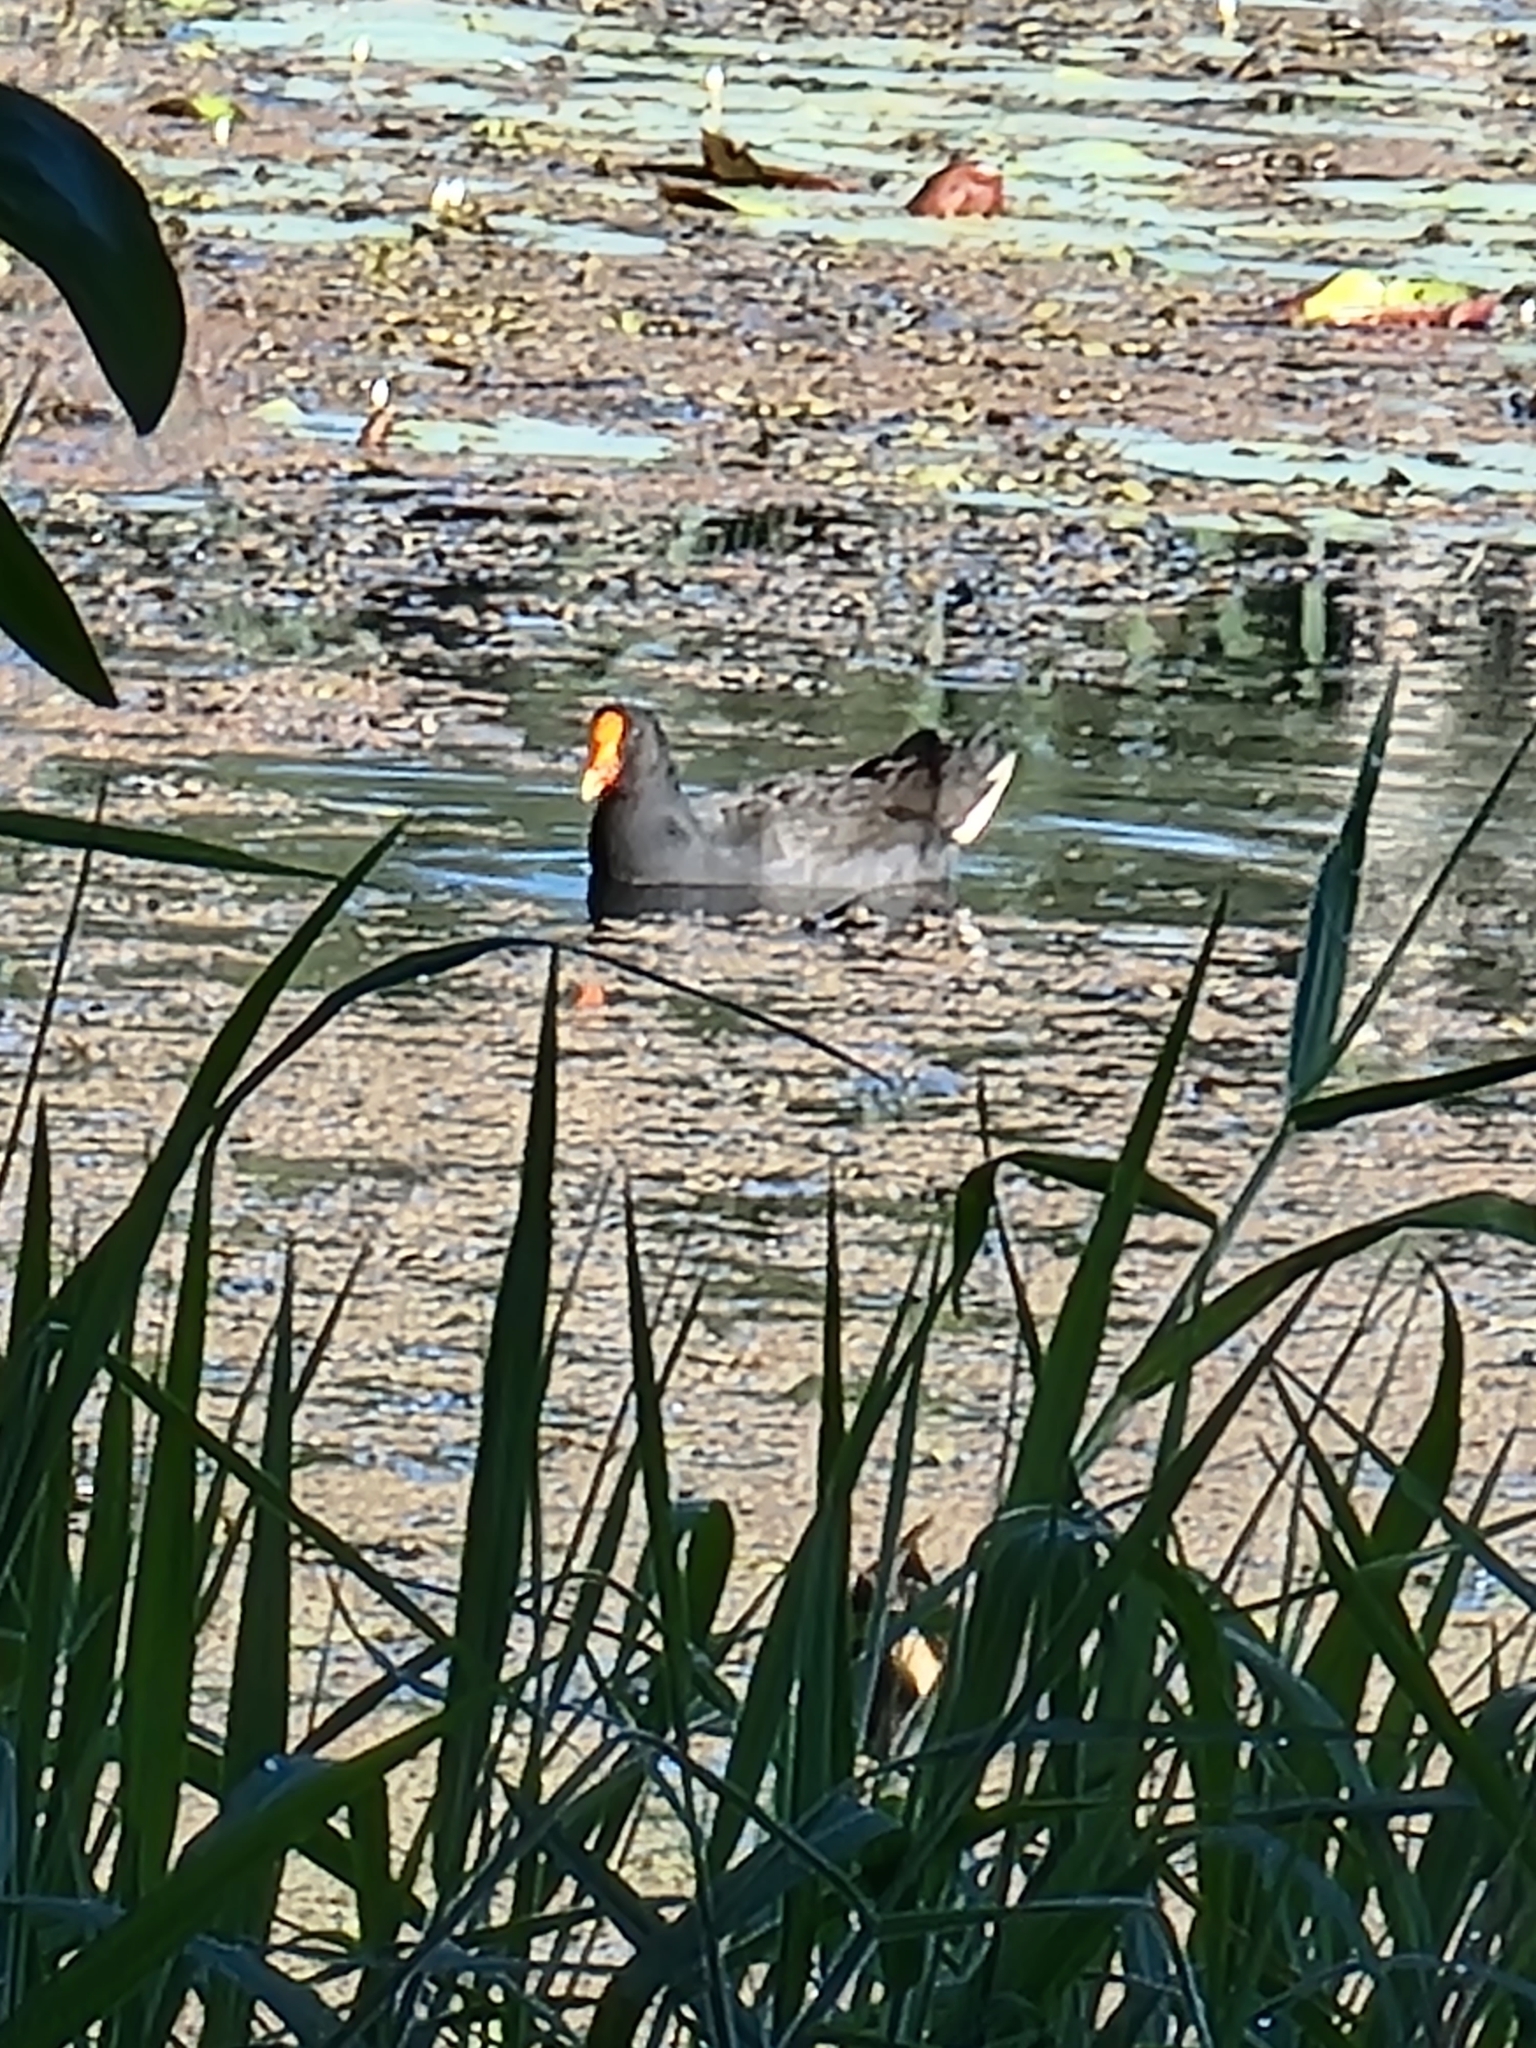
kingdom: Animalia
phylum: Chordata
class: Aves
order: Gruiformes
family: Rallidae
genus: Gallinula
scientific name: Gallinula tenebrosa
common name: Dusky moorhen
